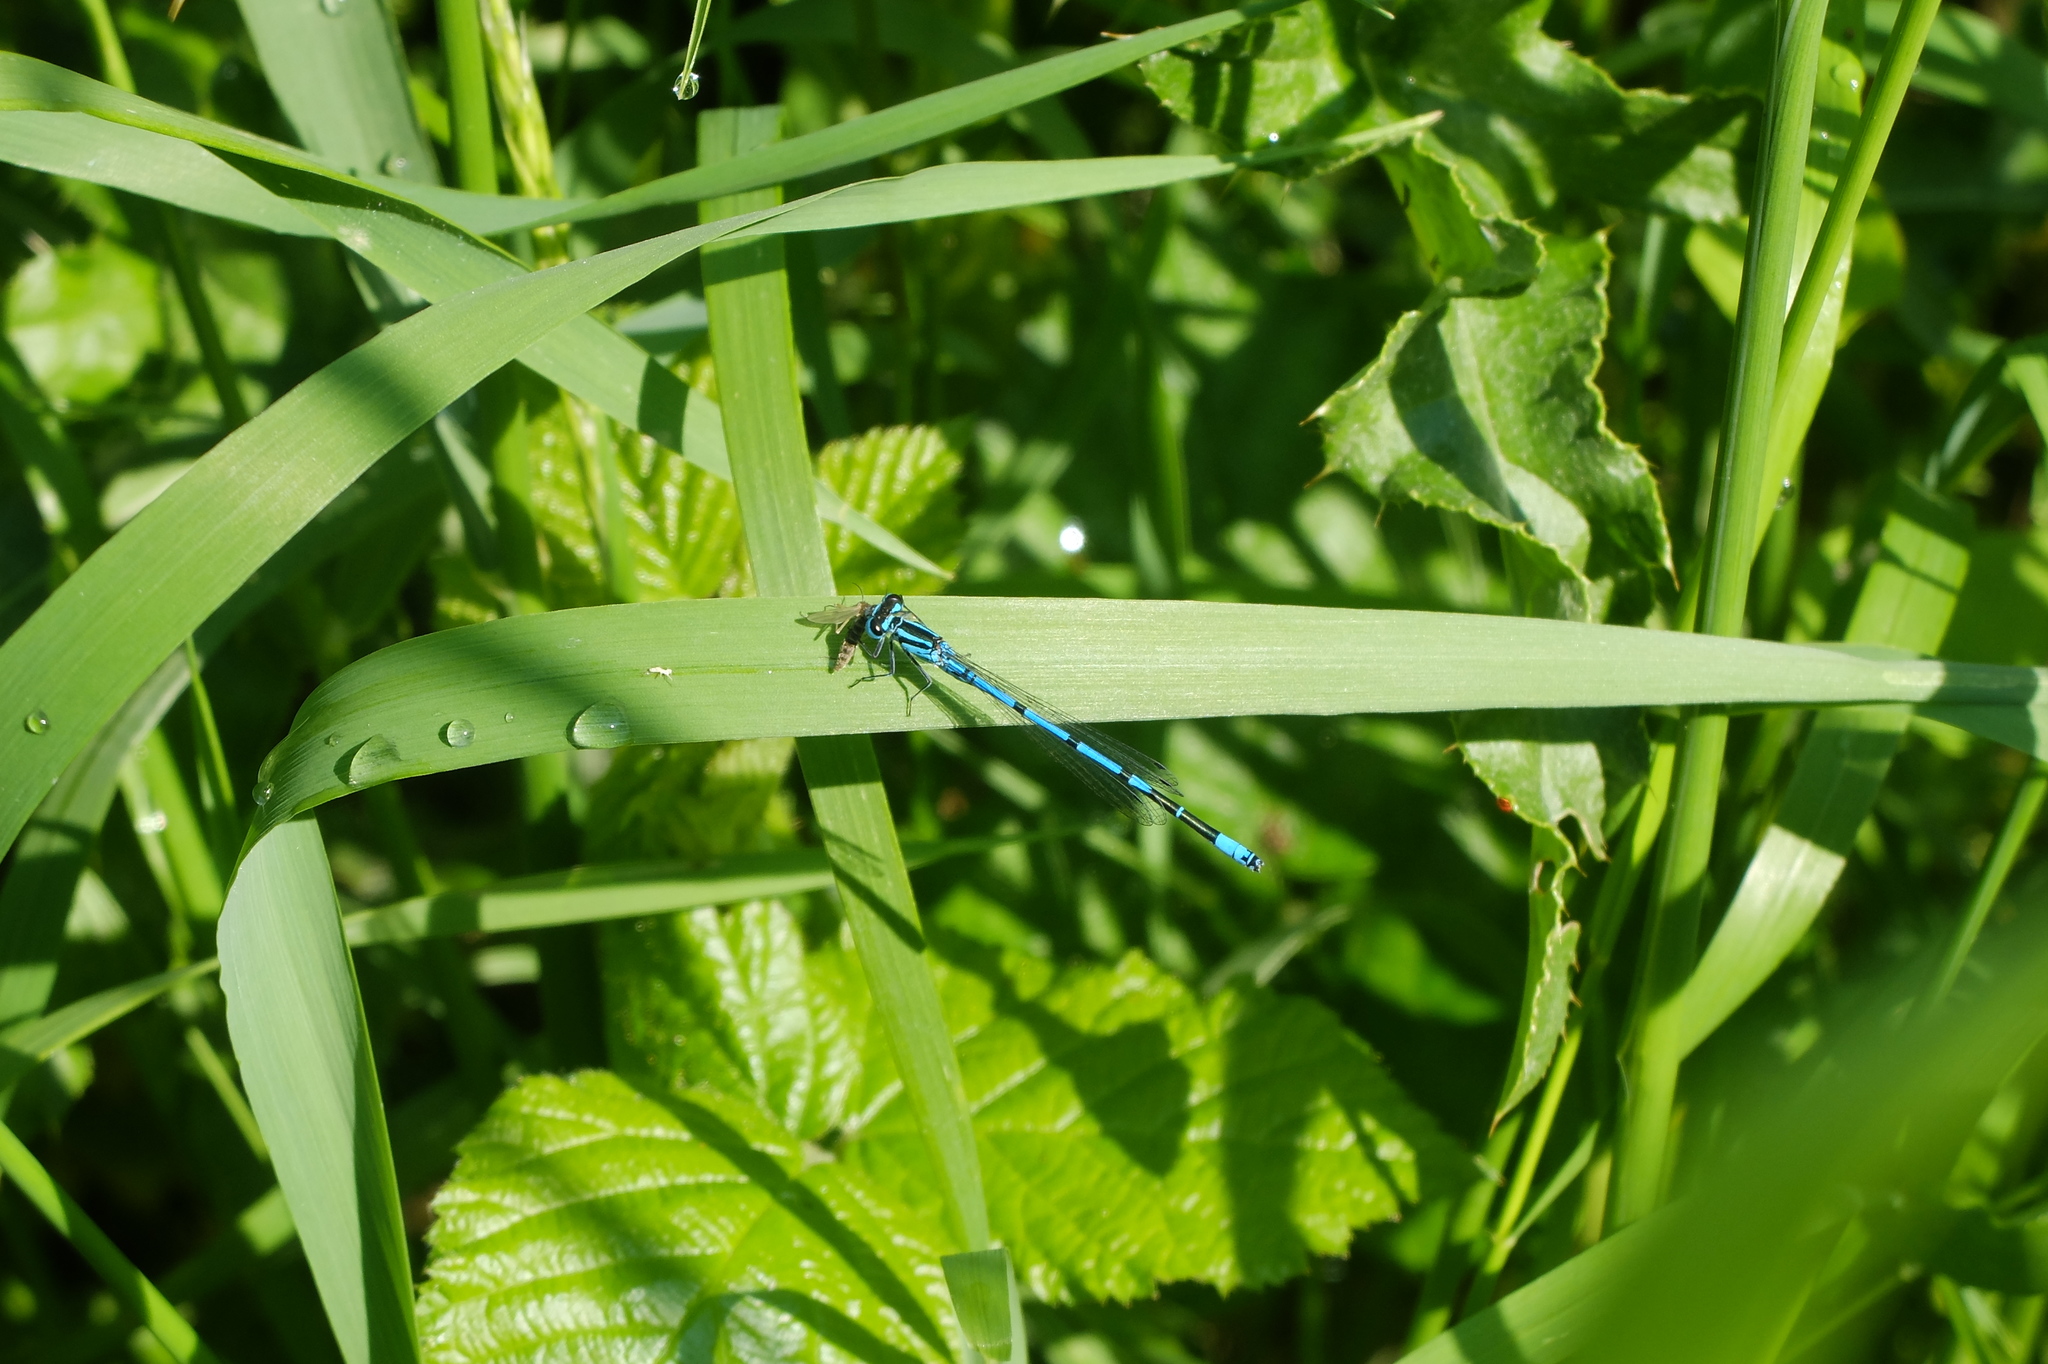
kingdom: Animalia
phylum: Arthropoda
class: Insecta
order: Odonata
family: Coenagrionidae
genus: Coenagrion
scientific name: Coenagrion puella
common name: Azure damselfly
